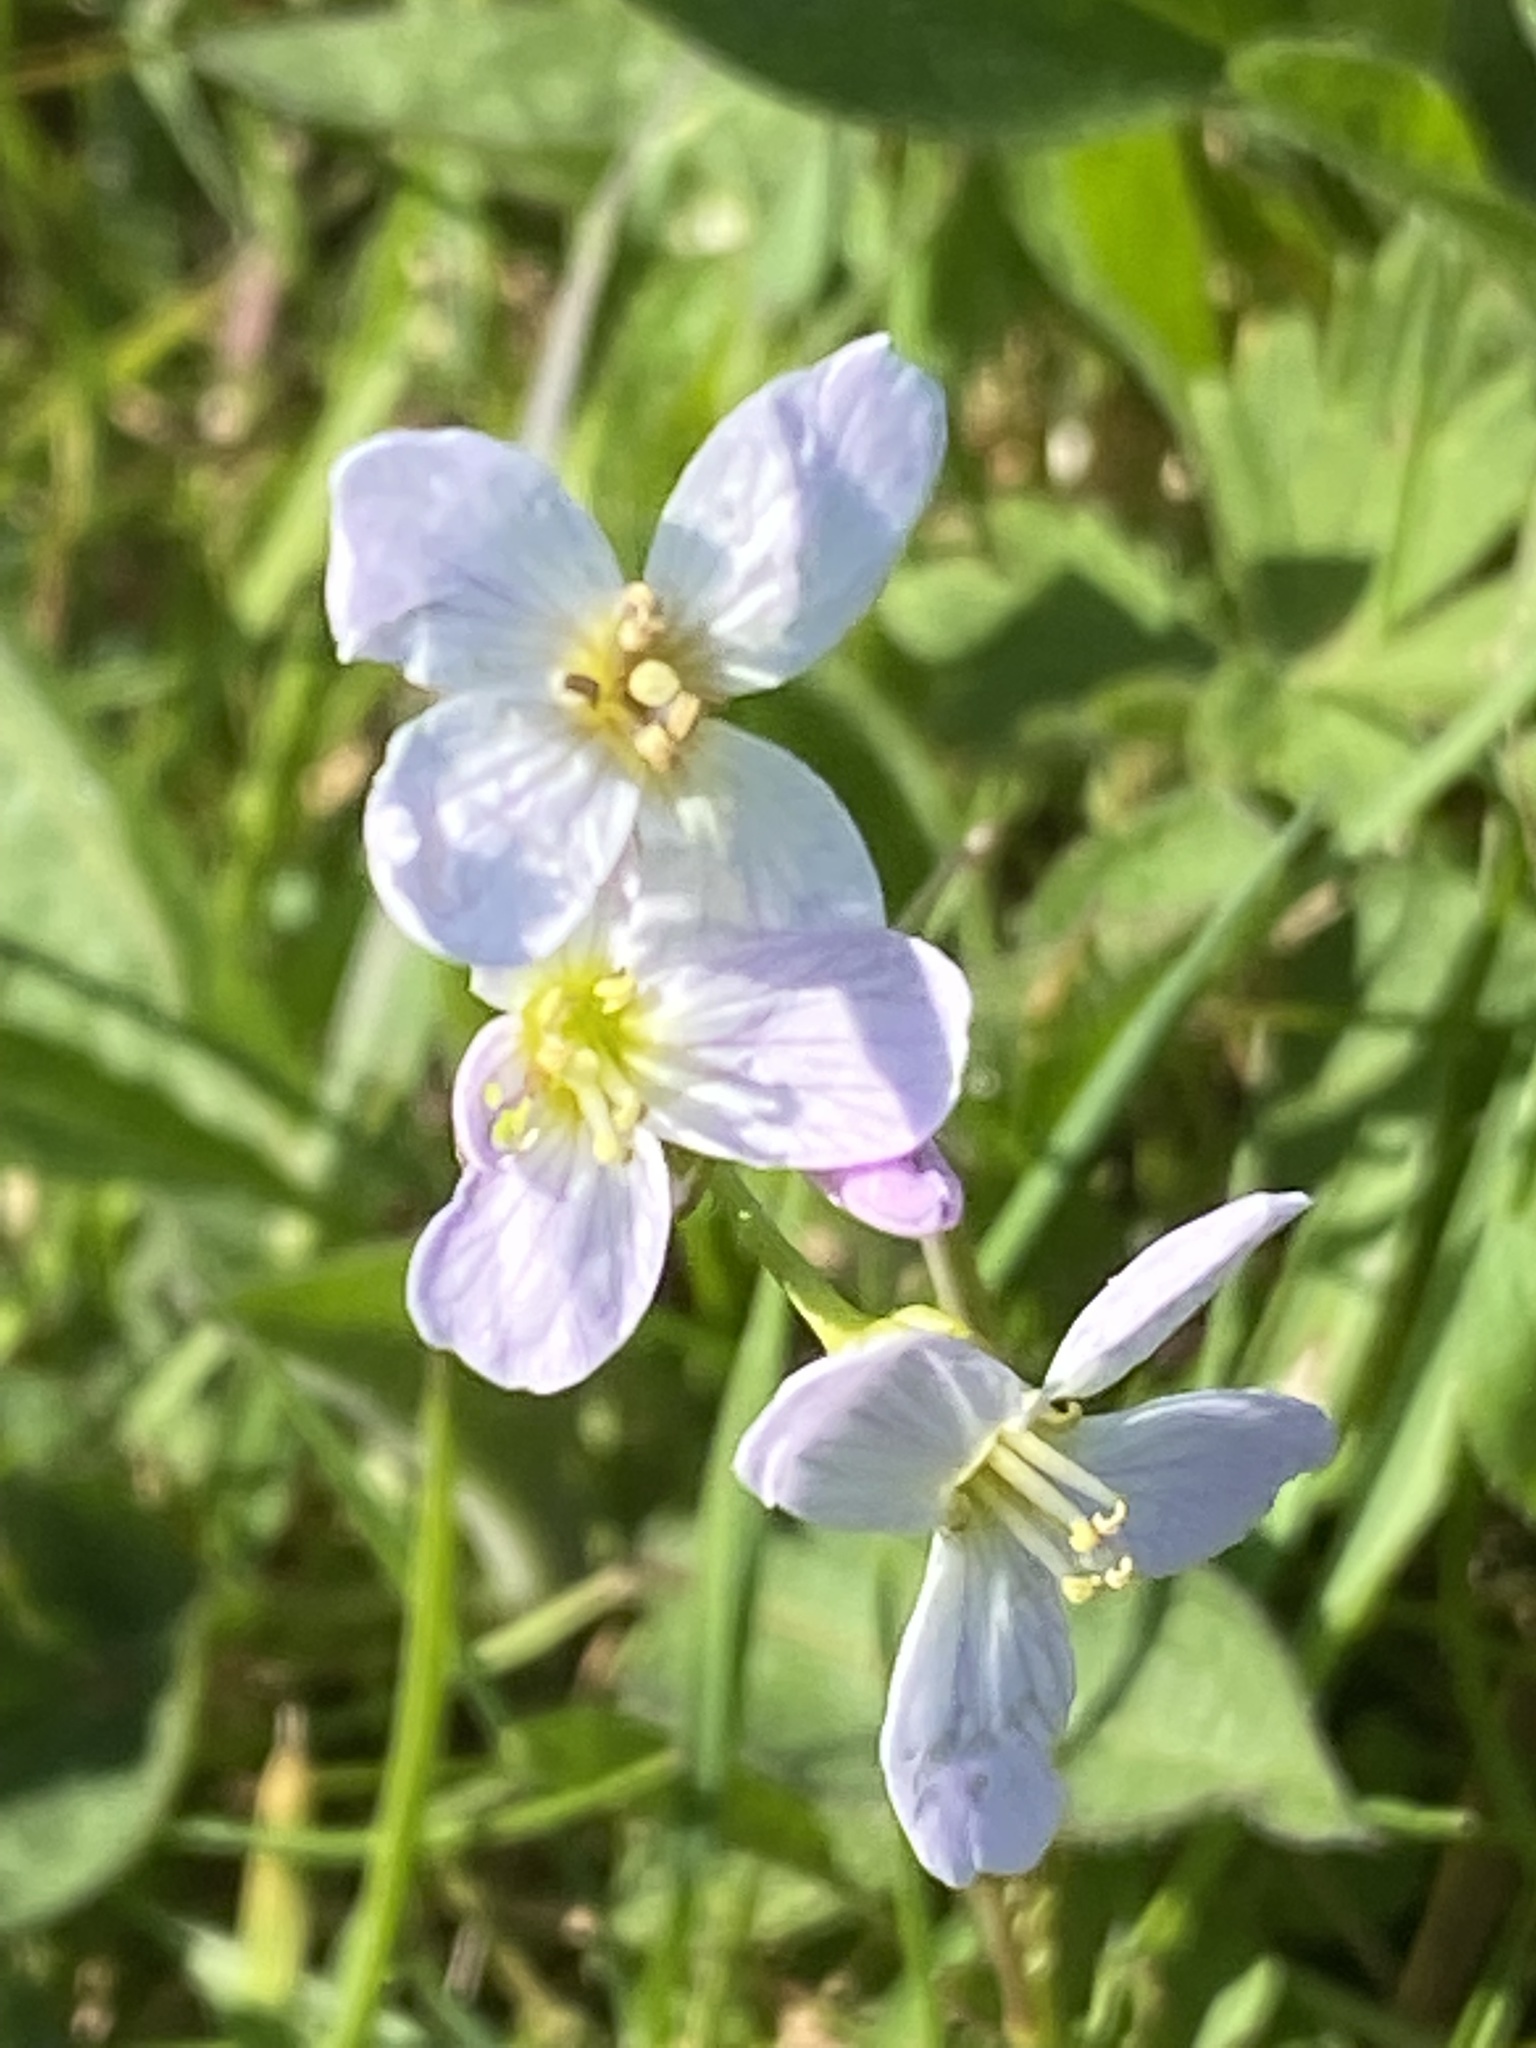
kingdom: Plantae
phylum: Tracheophyta
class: Magnoliopsida
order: Brassicales
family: Brassicaceae
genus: Cardamine
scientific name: Cardamine pratensis
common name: Cuckoo flower
